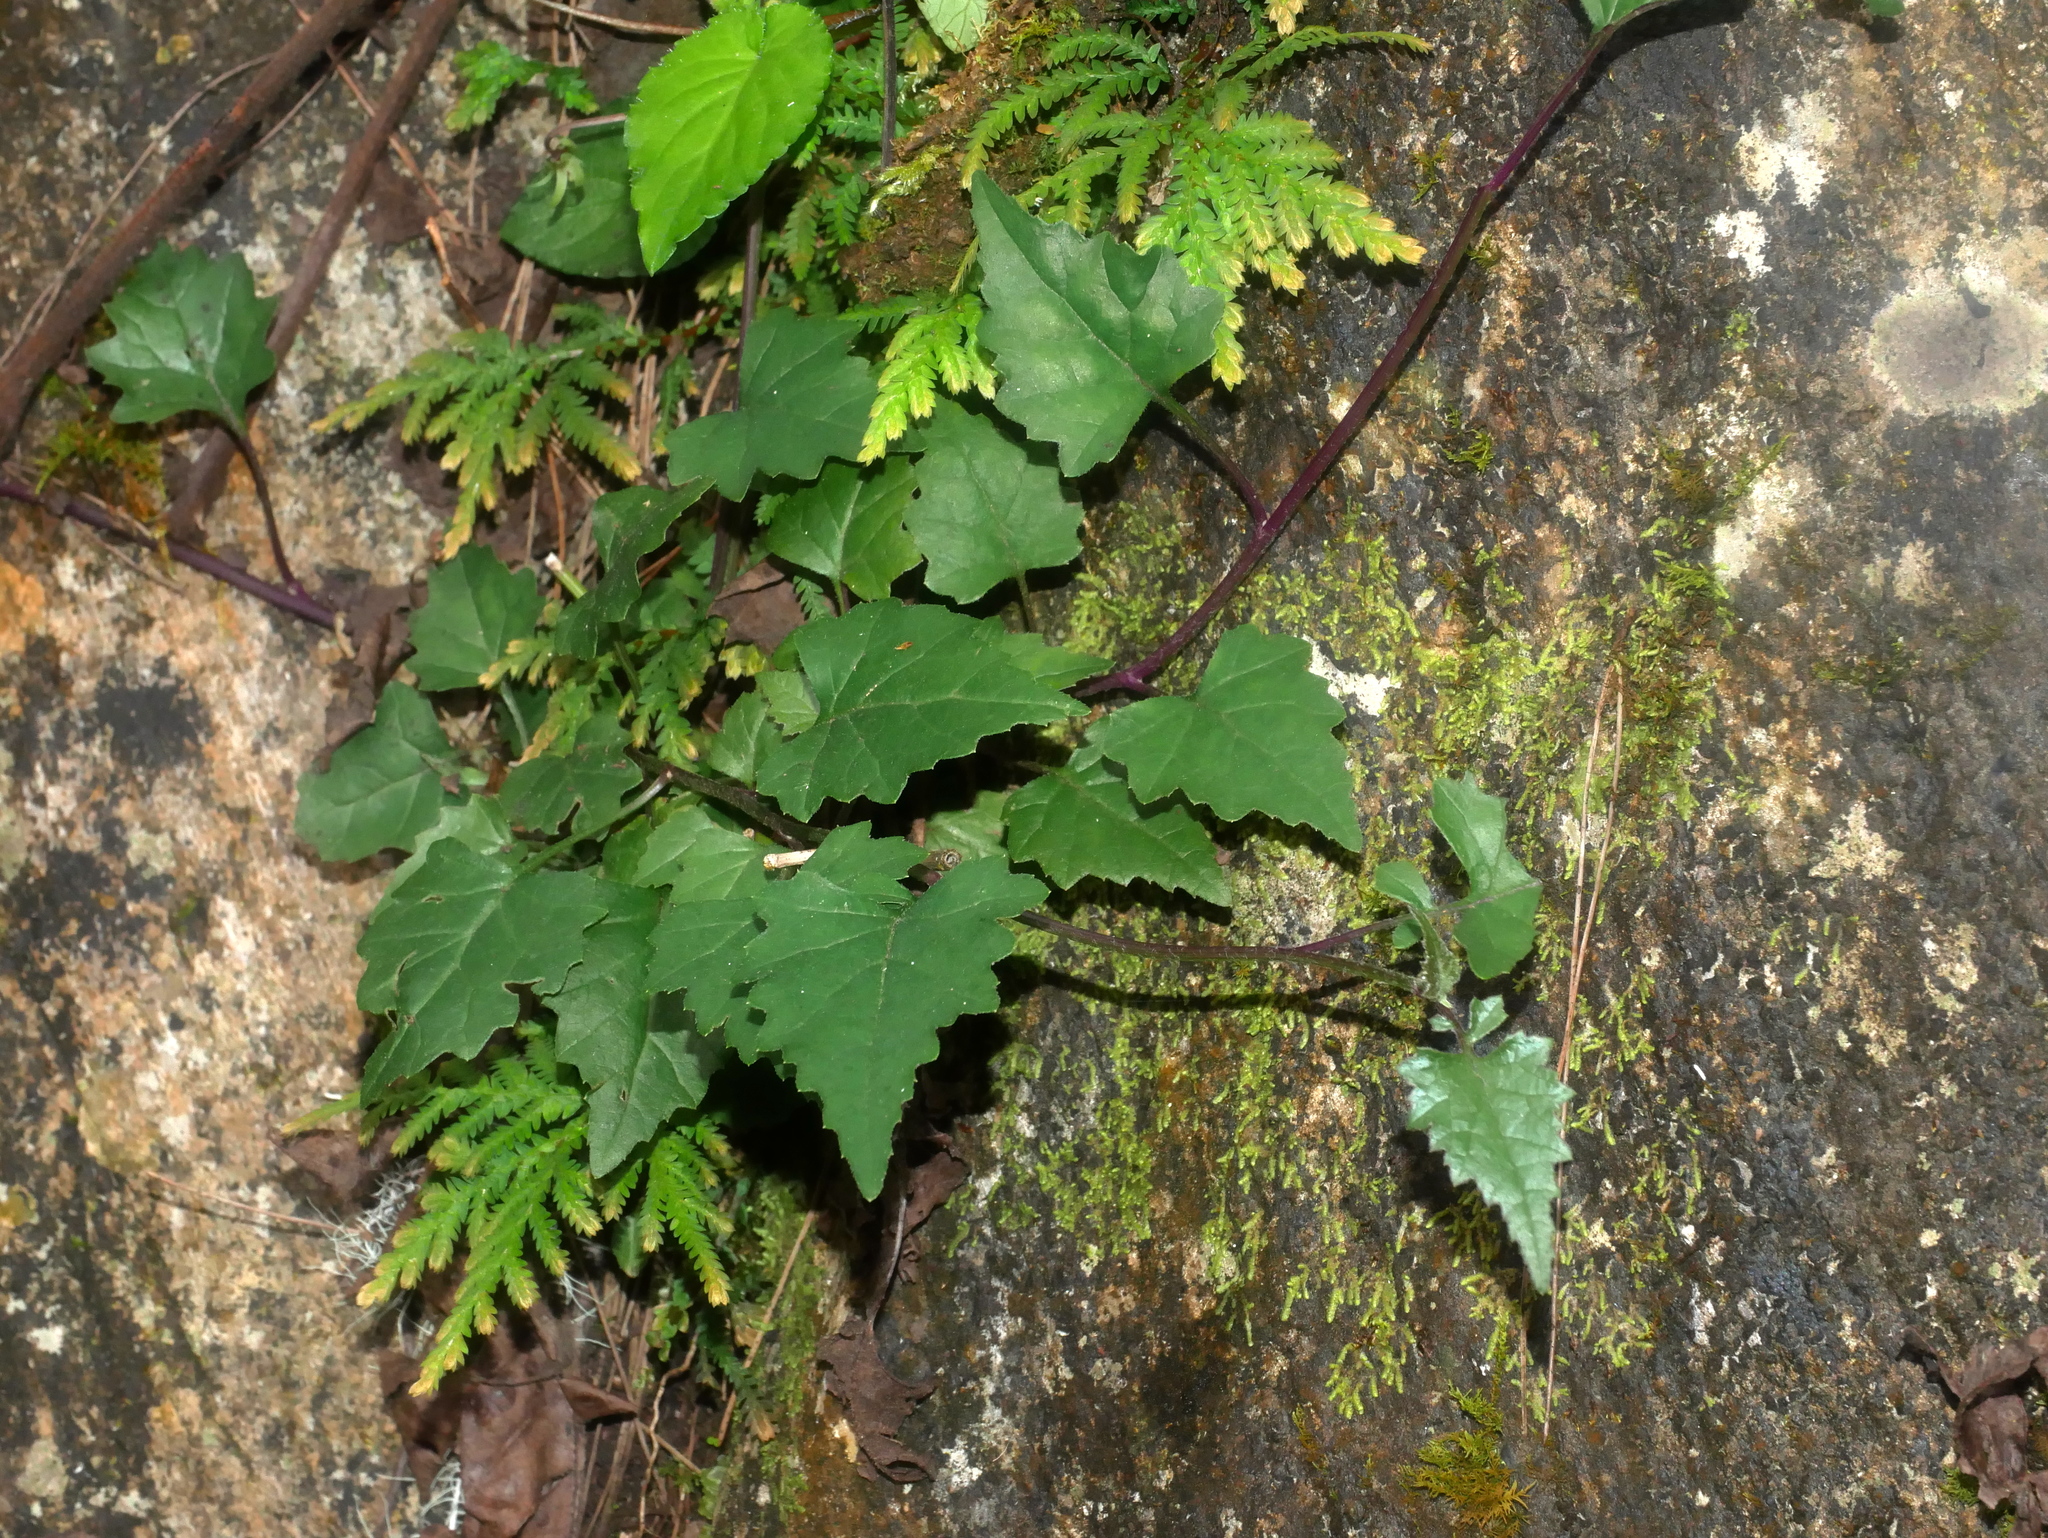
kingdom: Plantae
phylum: Tracheophyta
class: Magnoliopsida
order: Asterales
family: Asteraceae
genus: Senecio
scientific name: Senecio scandens
